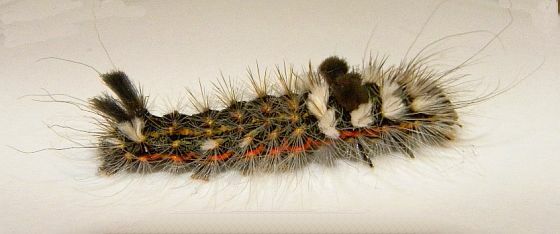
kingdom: Animalia
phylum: Arthropoda
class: Insecta
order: Lepidoptera
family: Noctuidae
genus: Acronicta
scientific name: Acronicta impleta
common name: Powdered dagger
